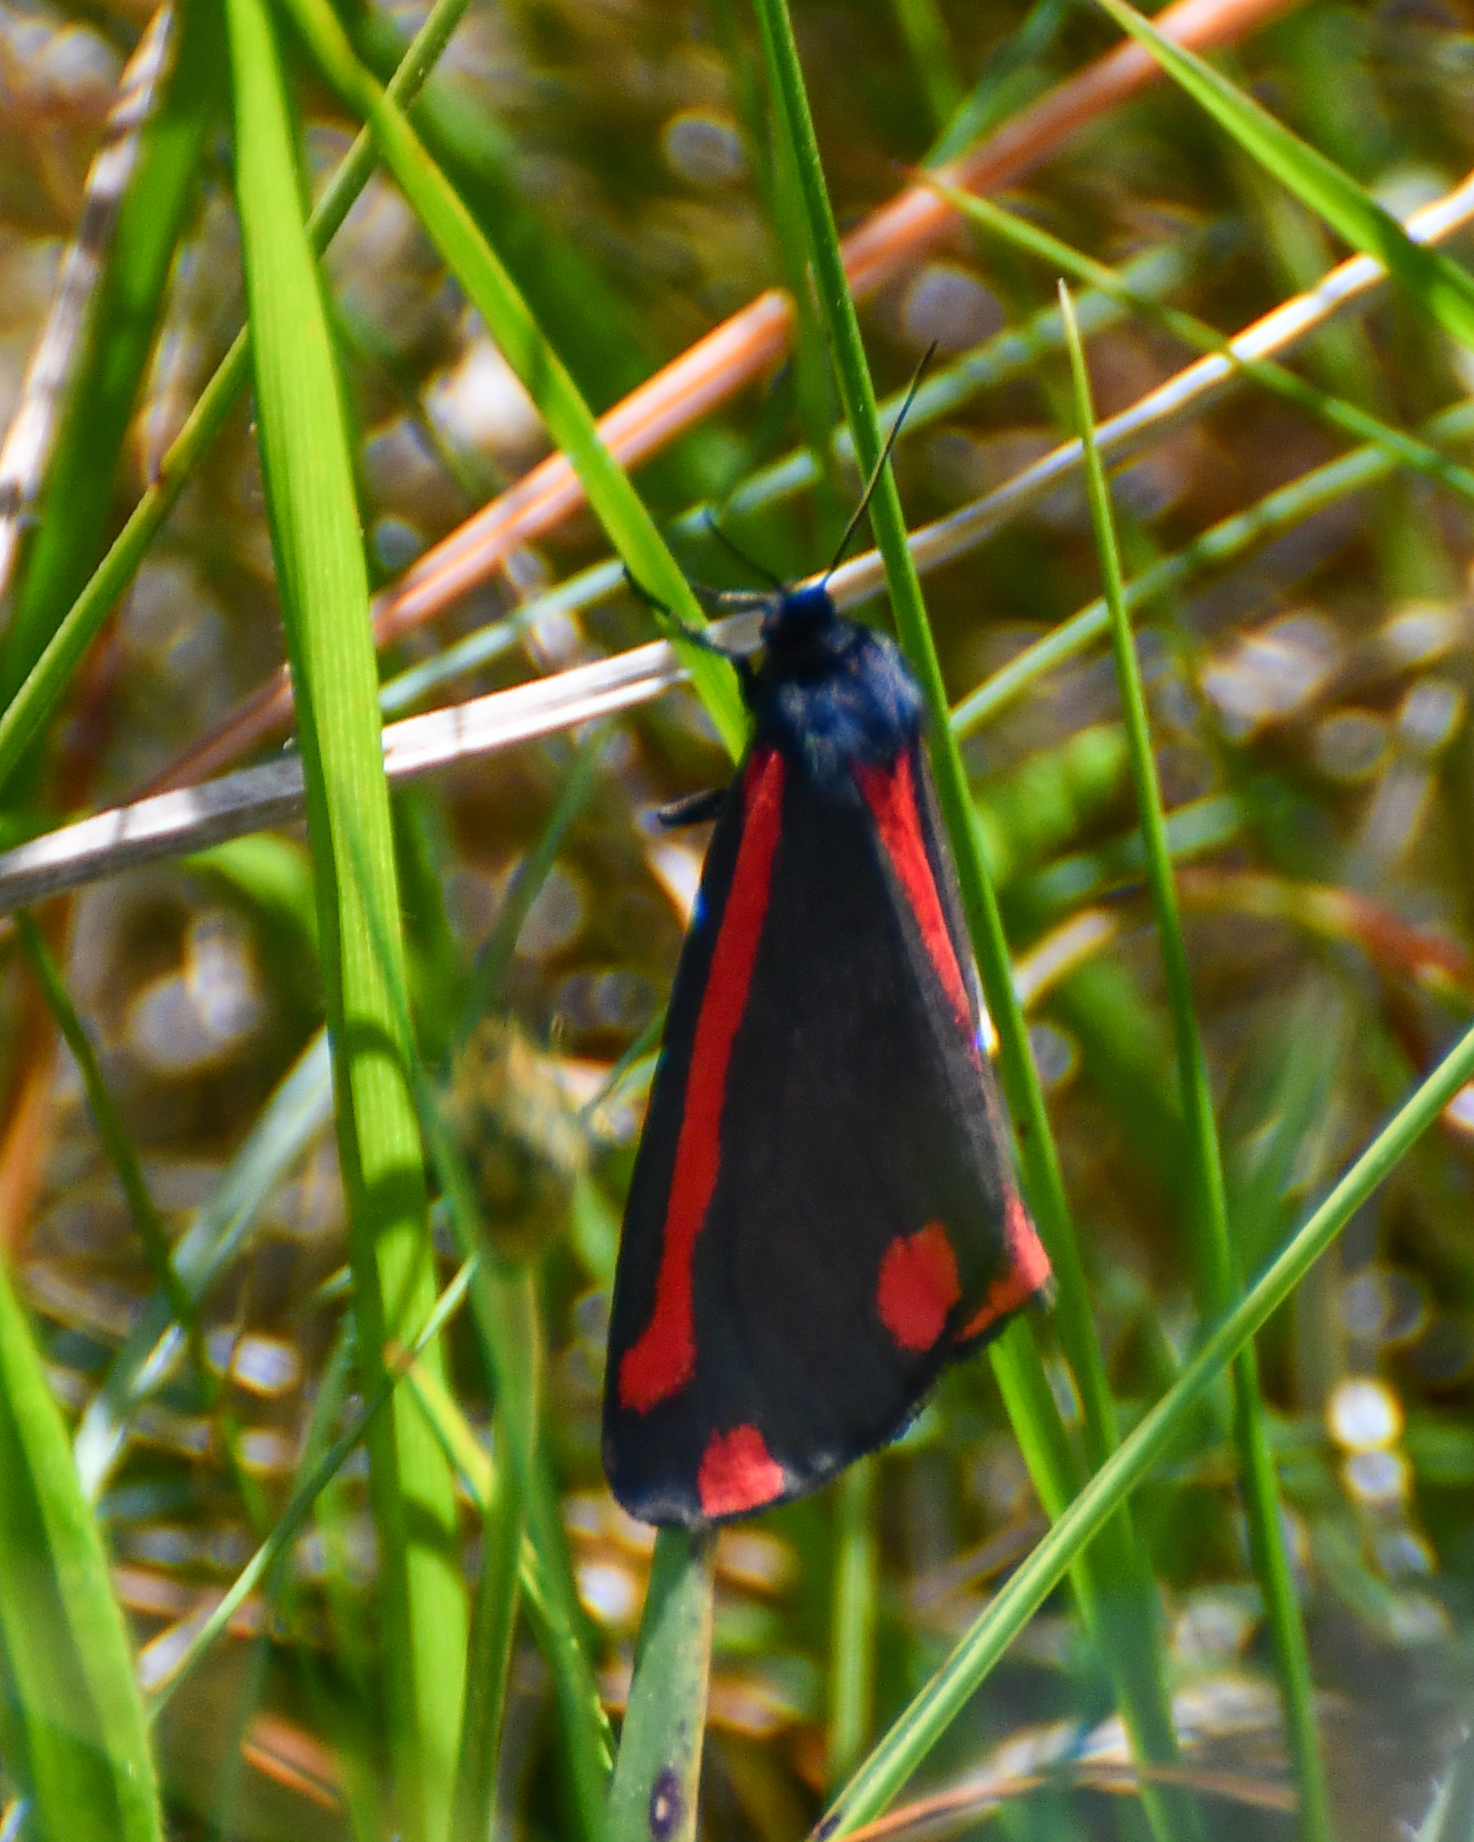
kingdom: Animalia
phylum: Arthropoda
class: Insecta
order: Lepidoptera
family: Erebidae
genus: Tyria
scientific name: Tyria jacobaeae
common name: Cinnabar
